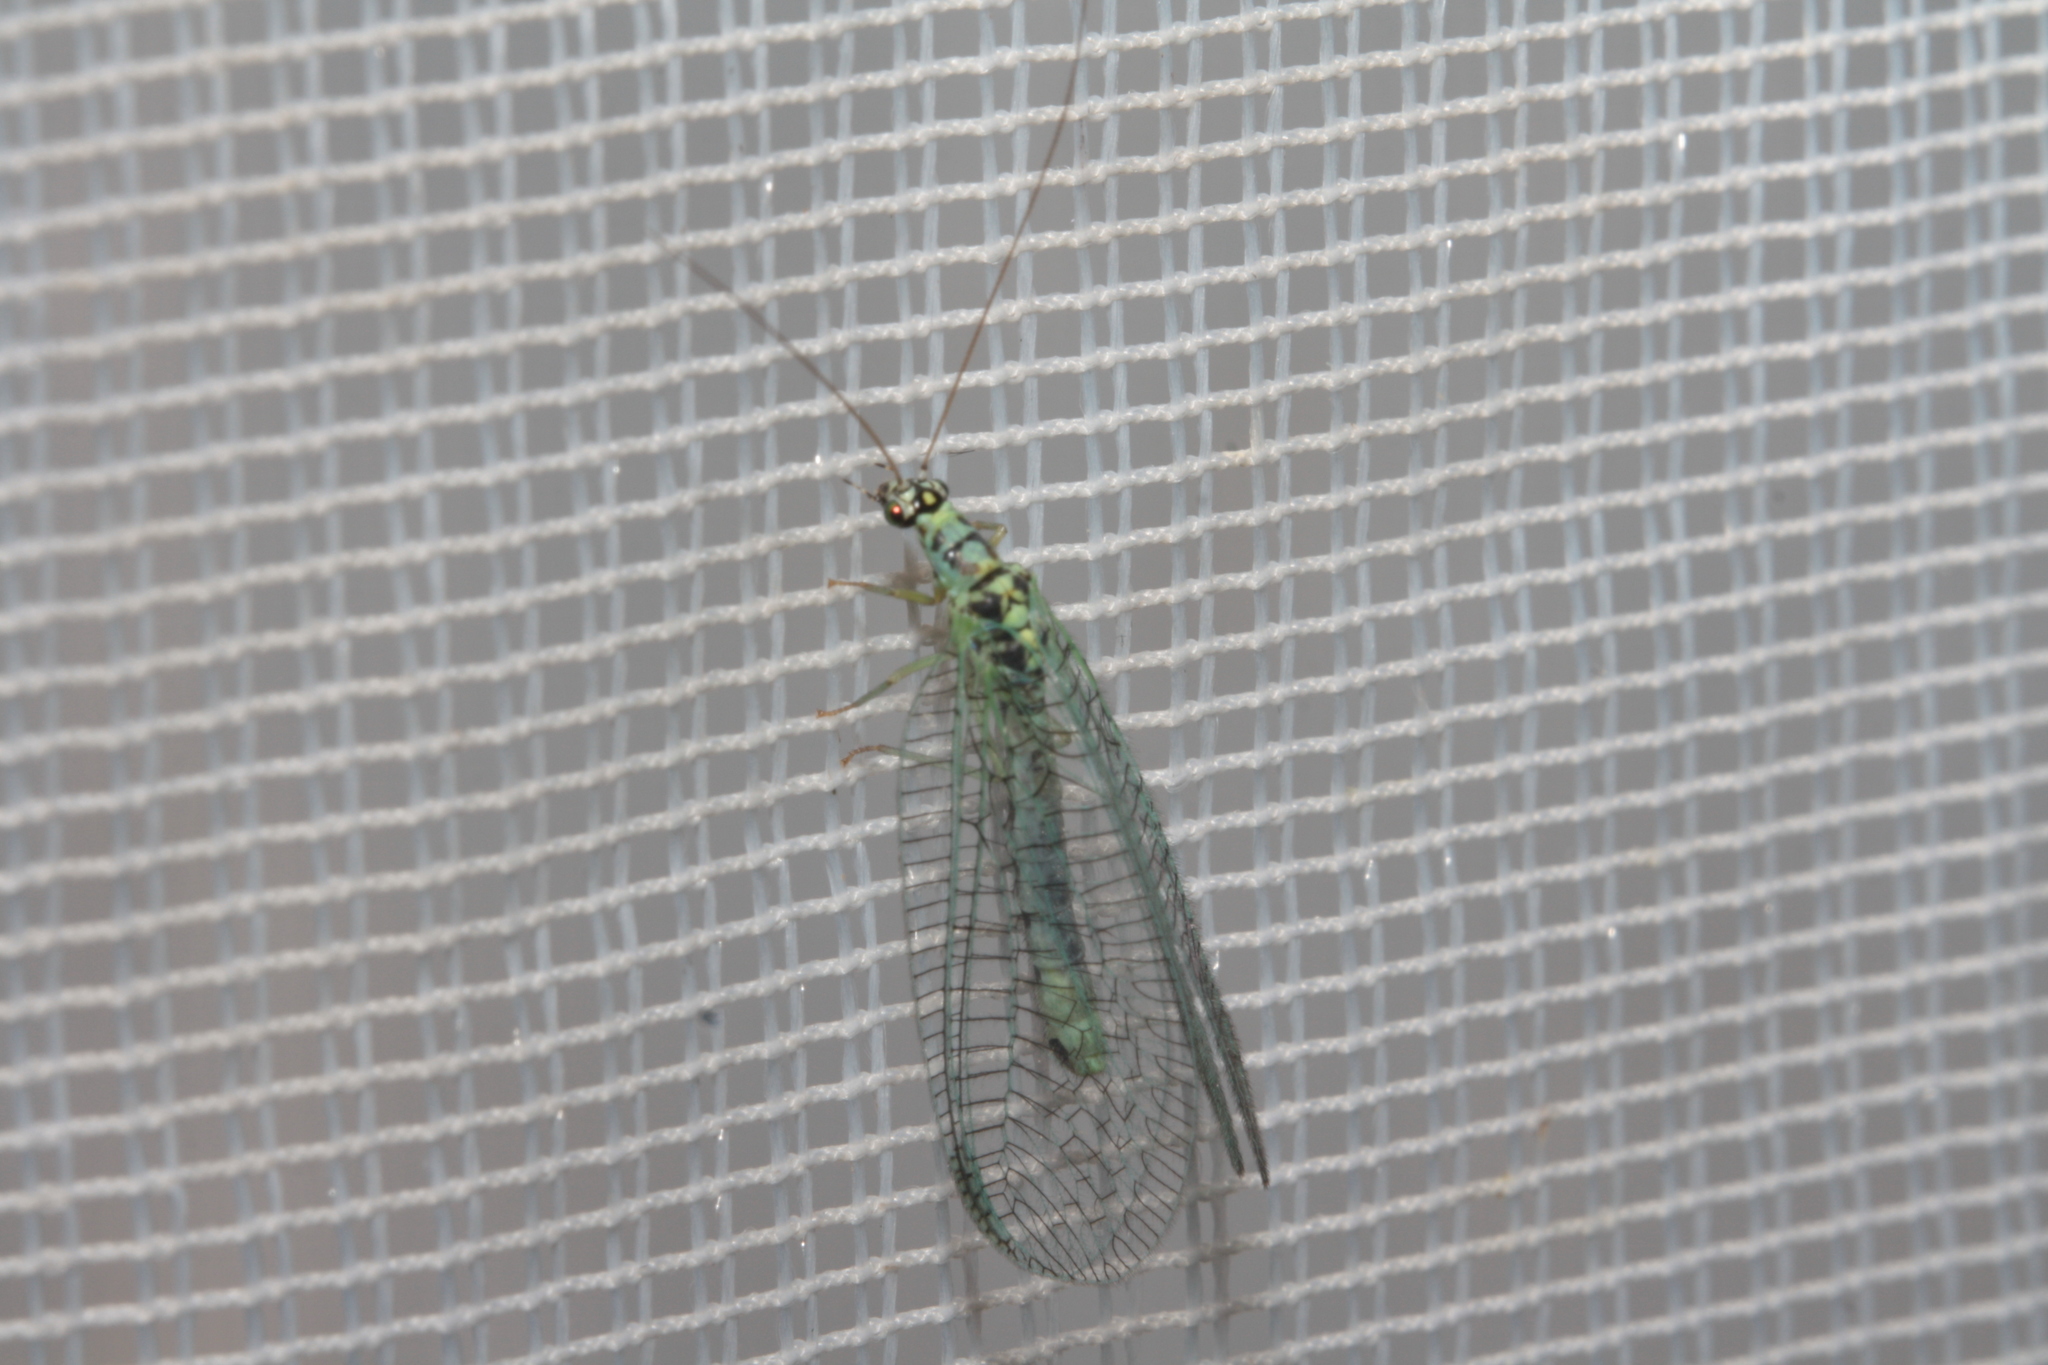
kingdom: Animalia
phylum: Arthropoda
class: Insecta
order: Neuroptera
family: Chrysopidae
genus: Chrysopa
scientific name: Chrysopa perla
